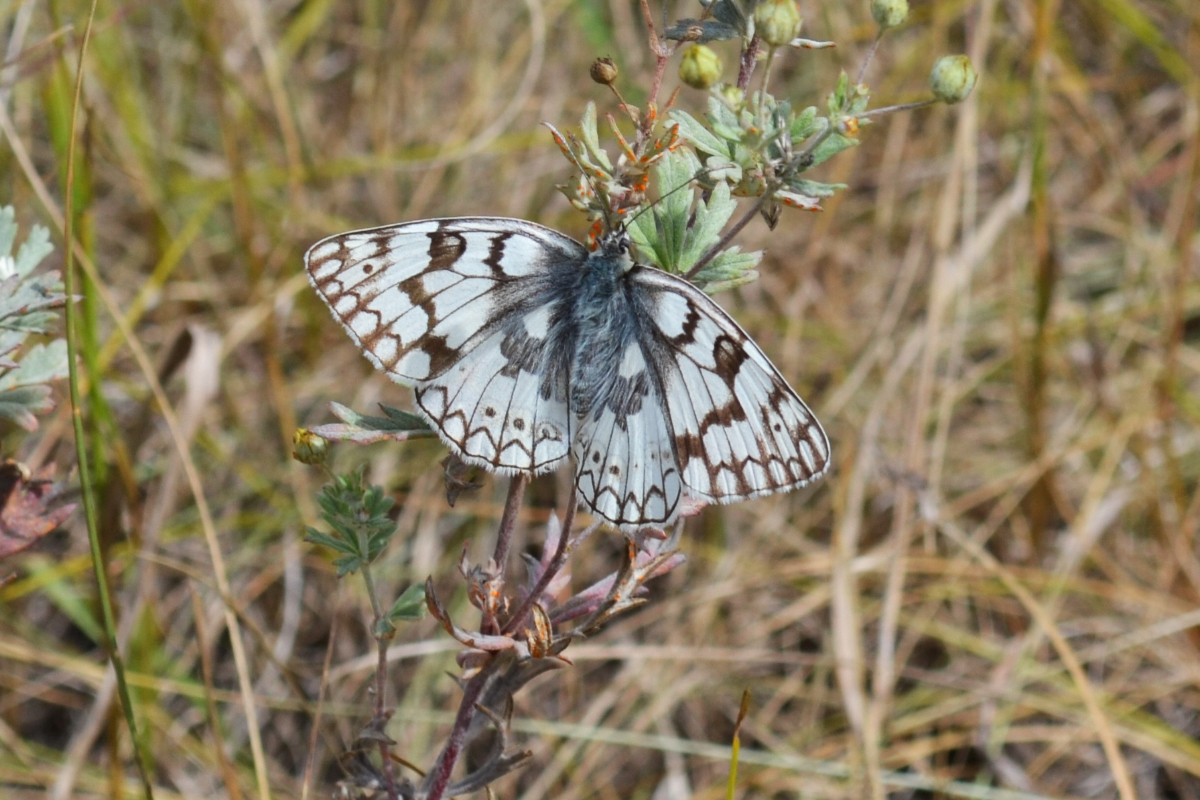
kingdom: Animalia
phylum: Arthropoda
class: Insecta
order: Lepidoptera
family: Nymphalidae
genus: Melanargia
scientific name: Melanargia japygia
